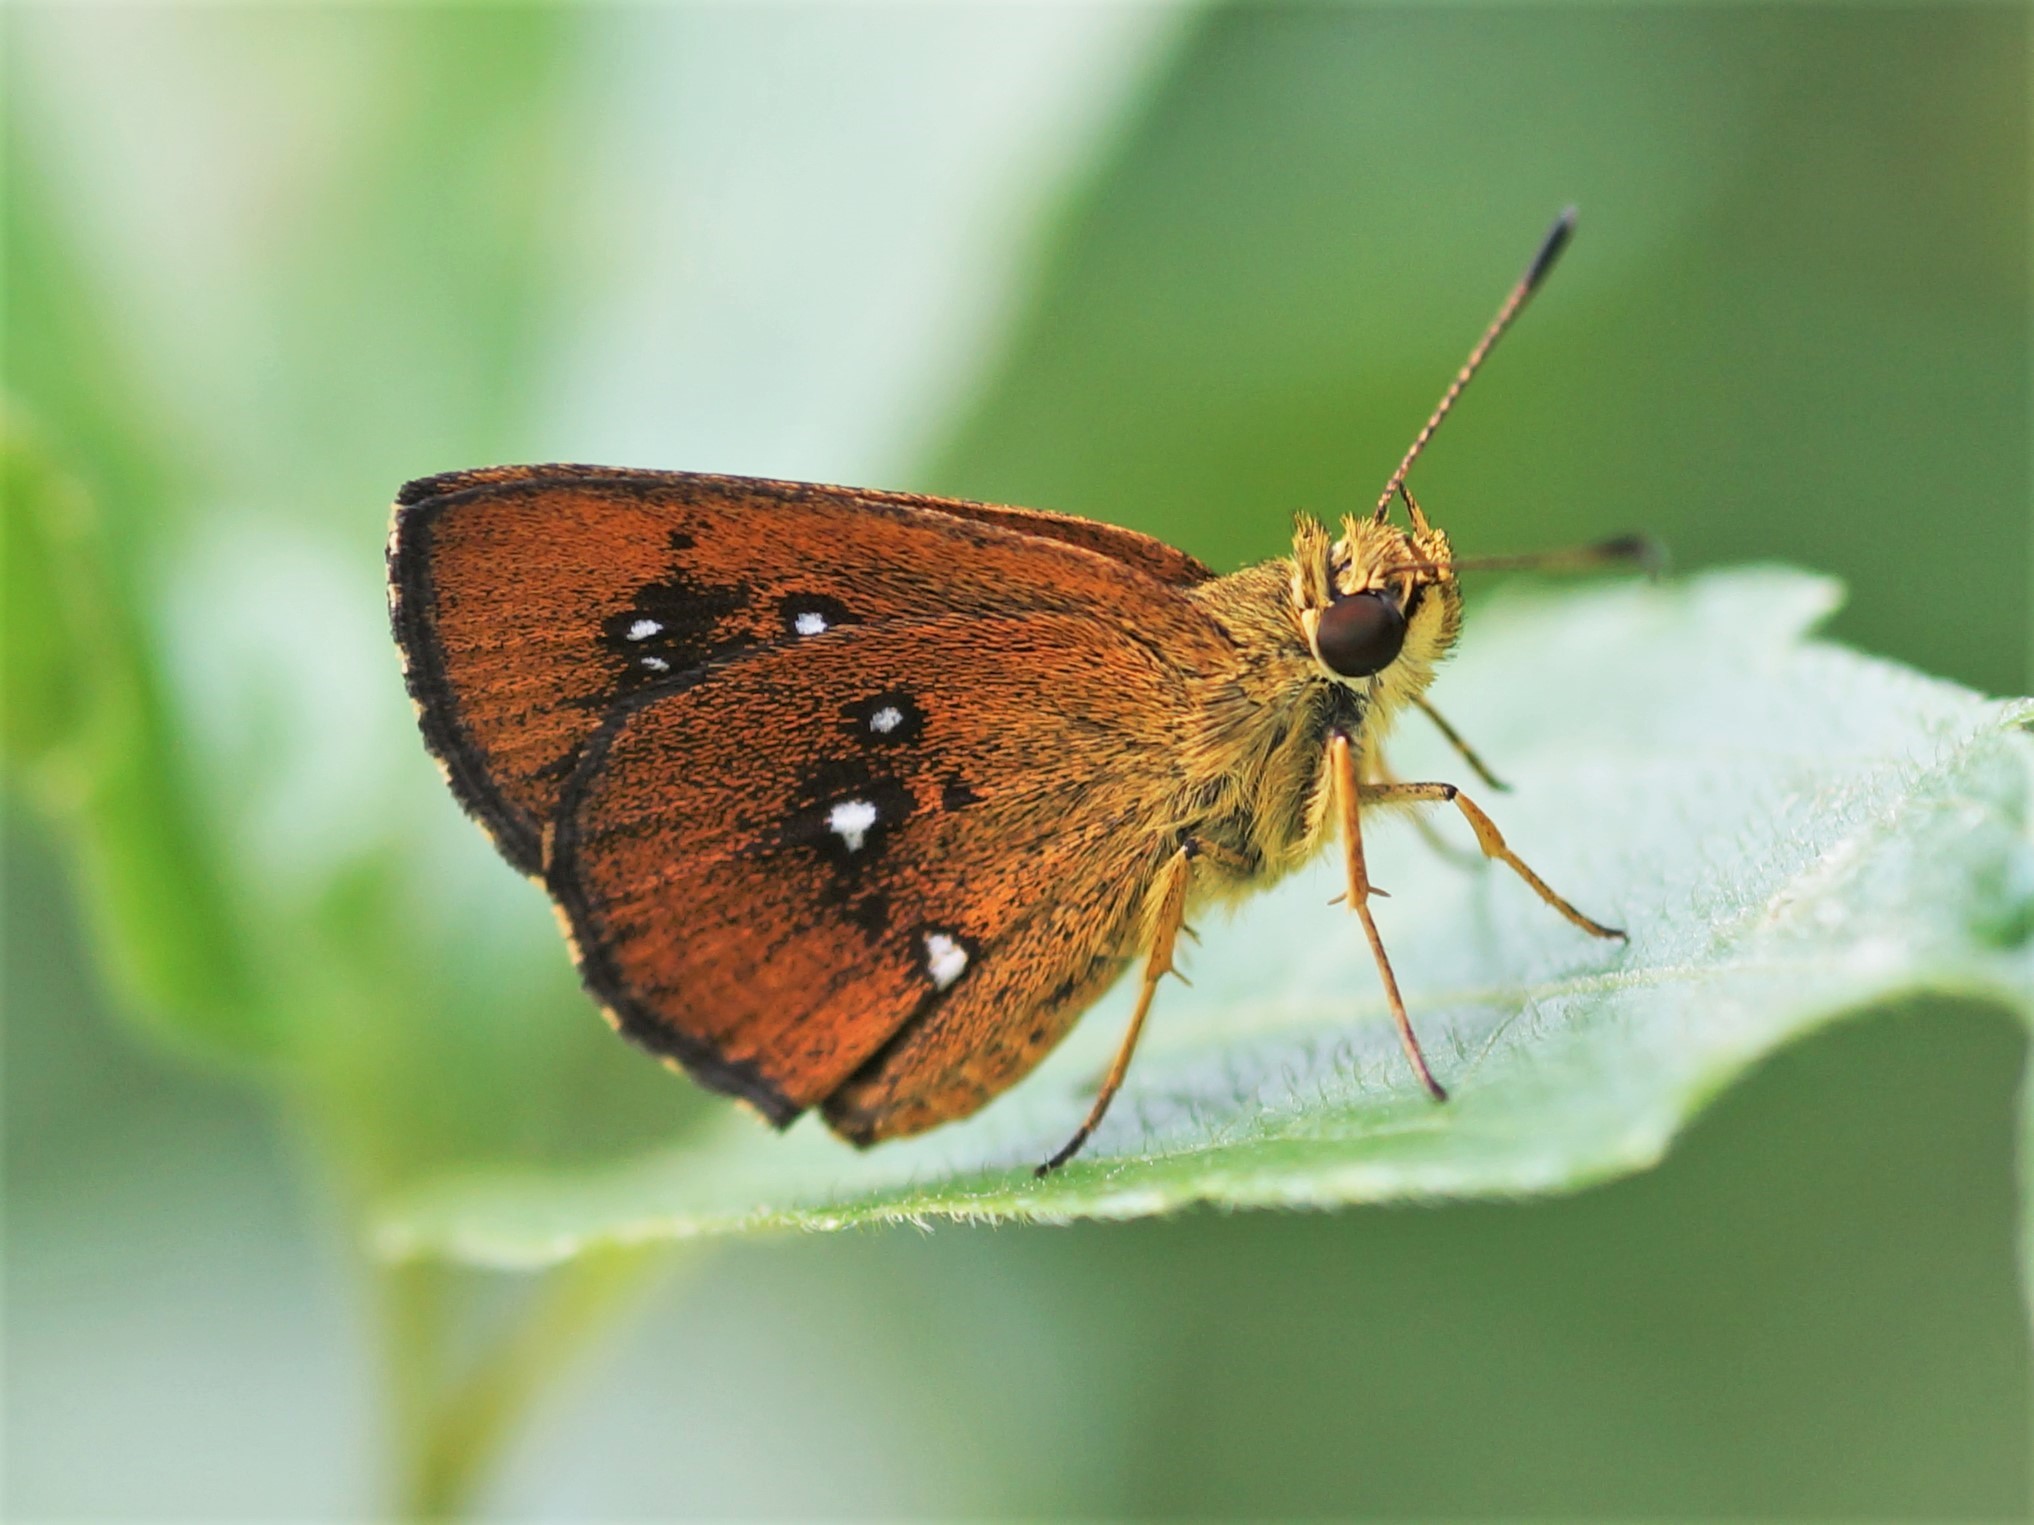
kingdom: Animalia
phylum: Arthropoda
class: Insecta
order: Lepidoptera
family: Hesperiidae
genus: Iambrix
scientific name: Iambrix salsala
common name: Chestnut bob
